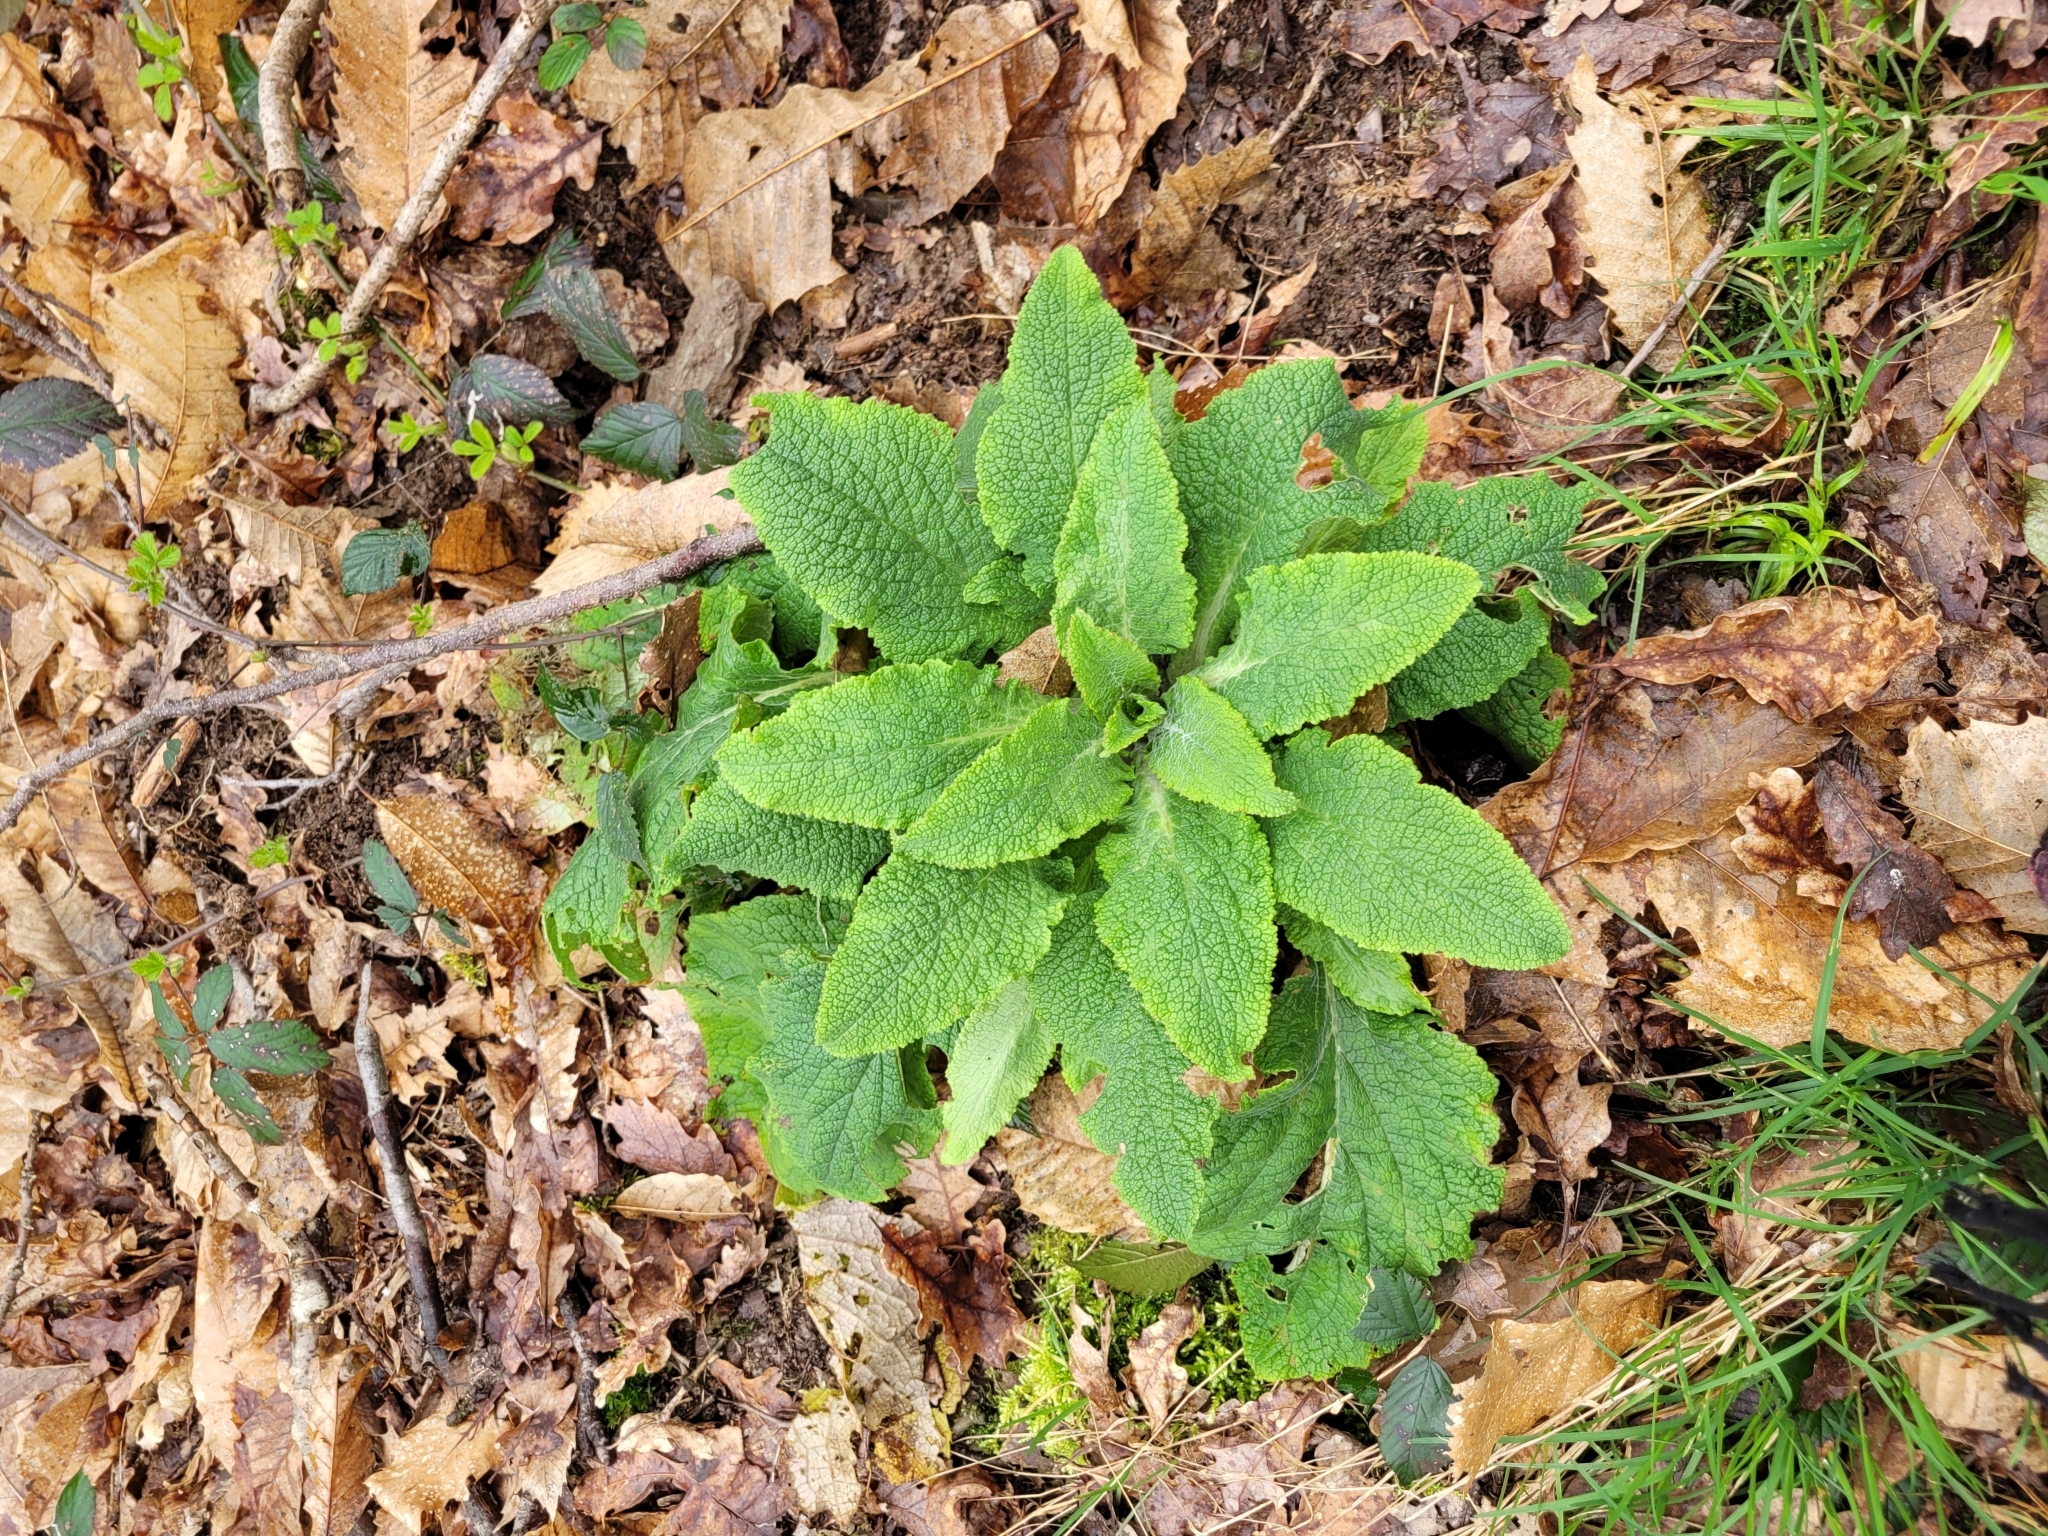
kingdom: Plantae
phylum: Tracheophyta
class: Magnoliopsida
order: Lamiales
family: Plantaginaceae
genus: Digitalis
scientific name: Digitalis purpurea
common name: Foxglove
